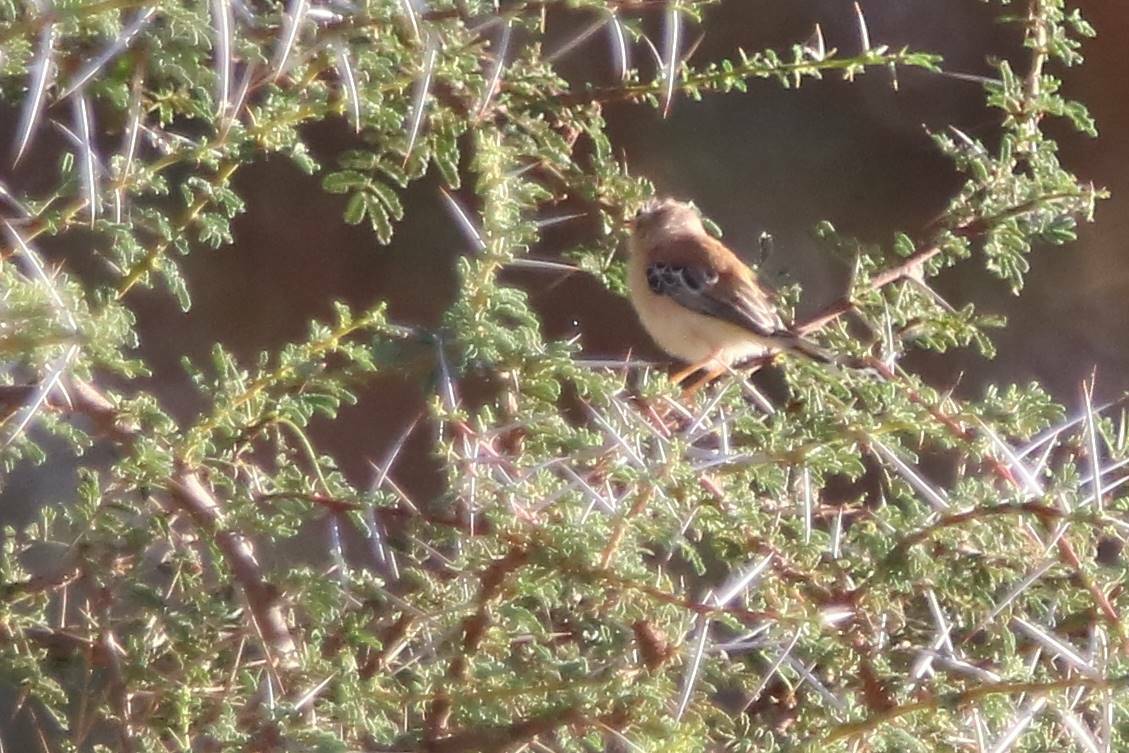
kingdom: Animalia
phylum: Chordata
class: Aves
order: Passeriformes
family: Cisticolidae
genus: Spiloptila
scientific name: Spiloptila clamans
